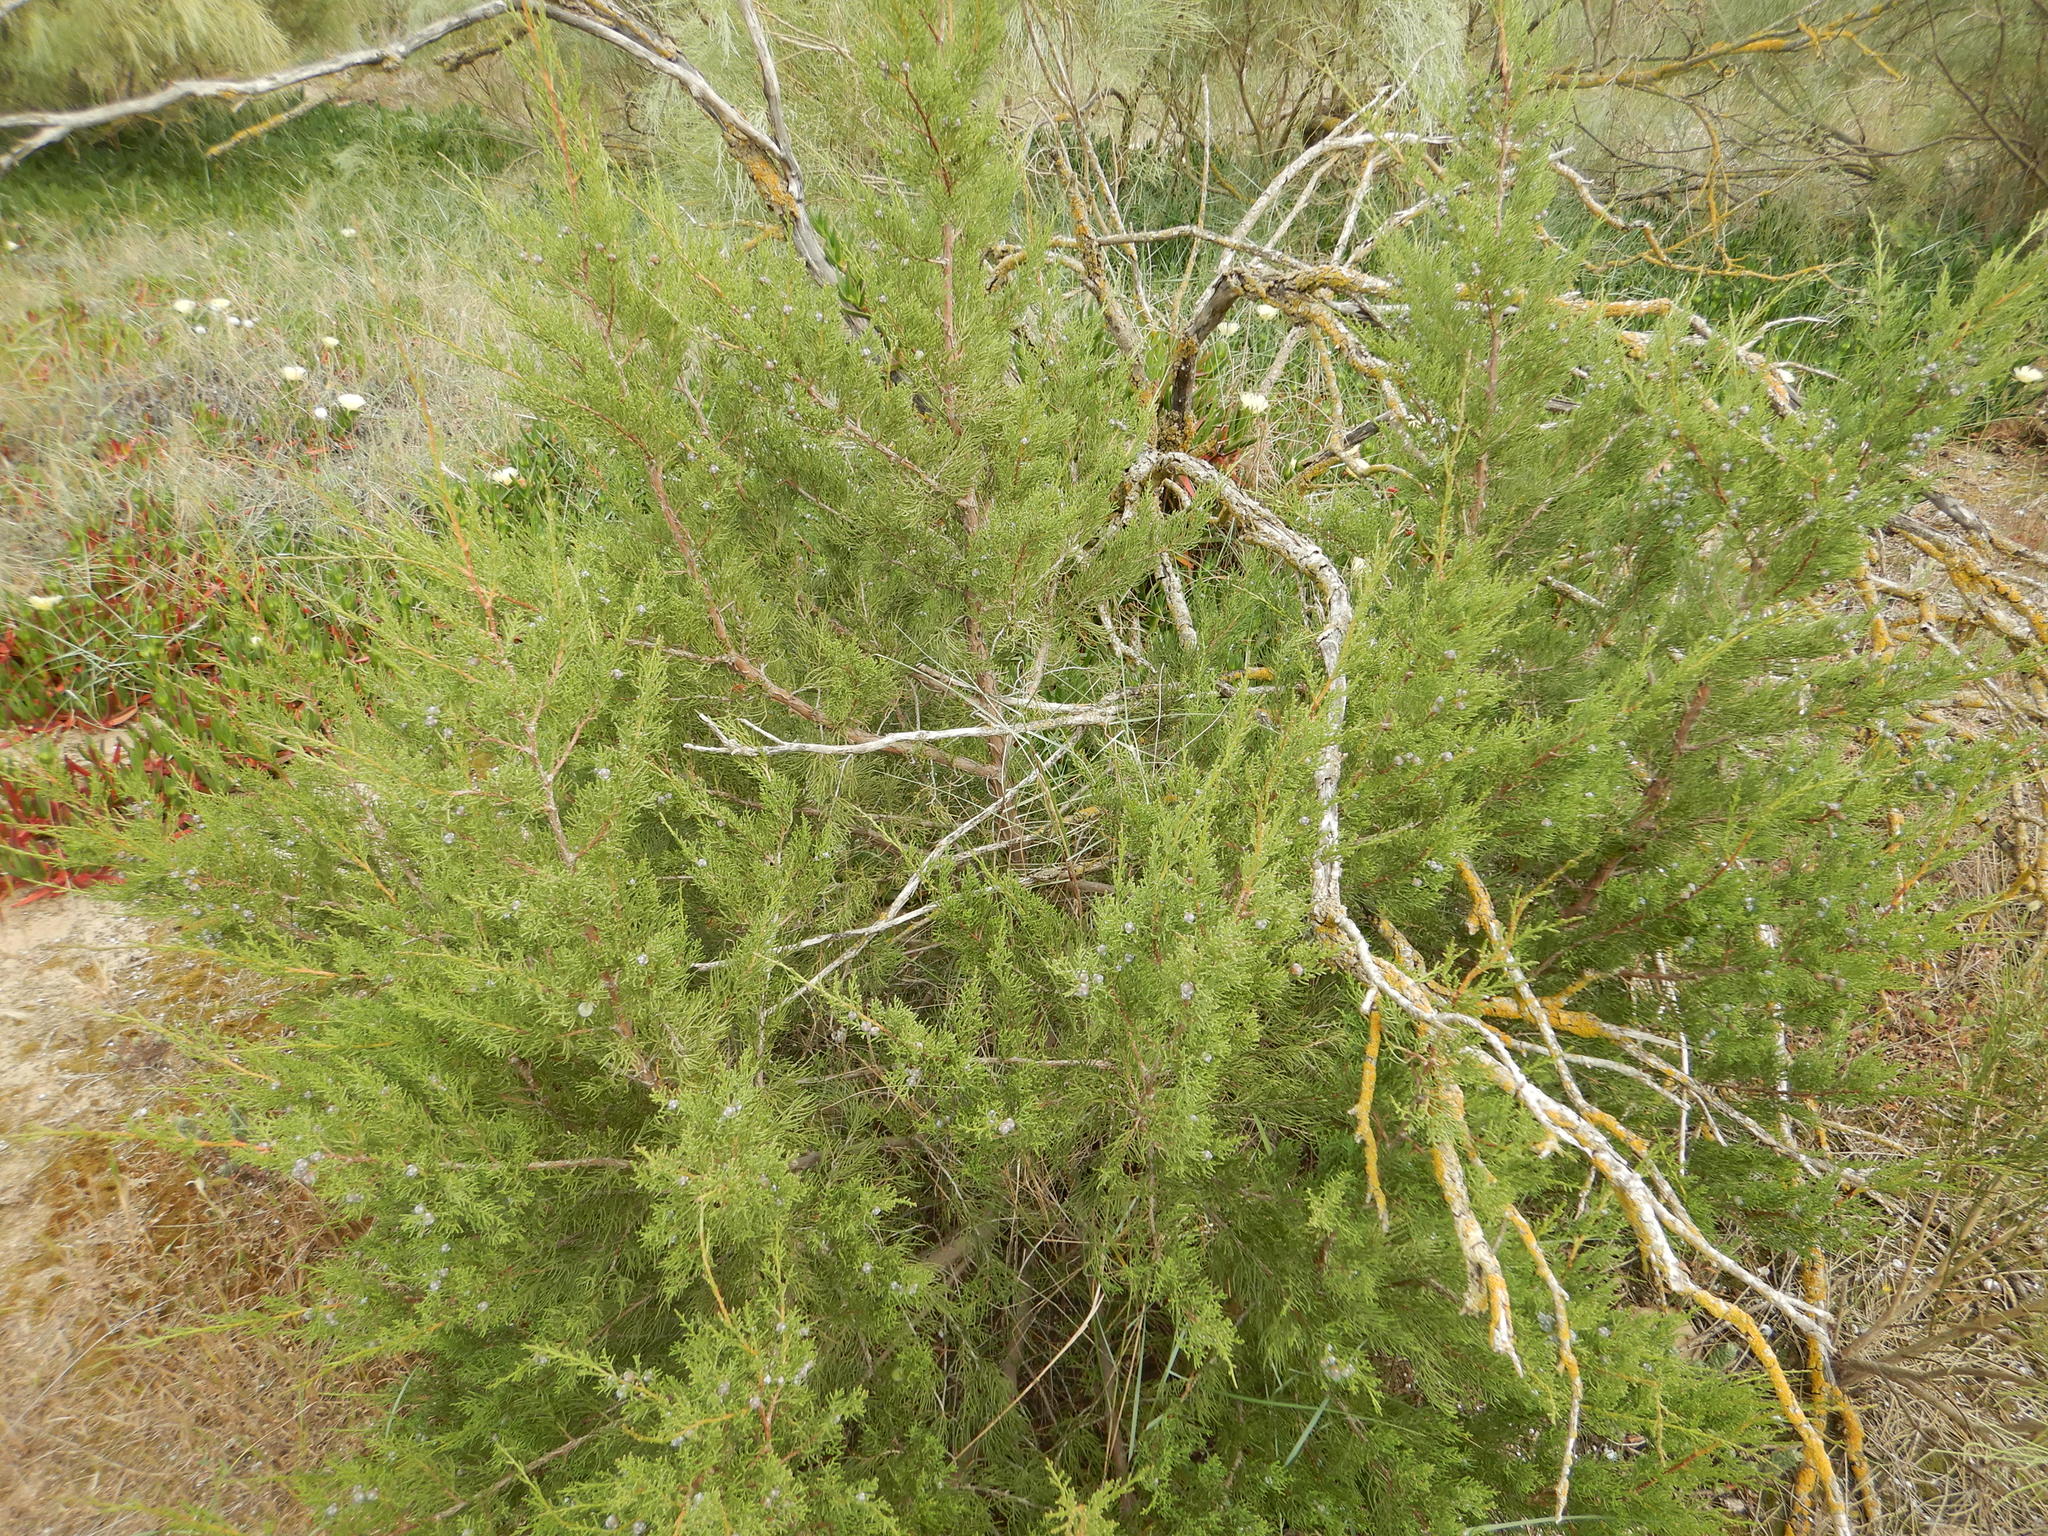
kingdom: Plantae
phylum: Tracheophyta
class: Pinopsida
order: Pinales
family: Cupressaceae
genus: Juniperus
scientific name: Juniperus phoenicea
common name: Phoenician juniper
